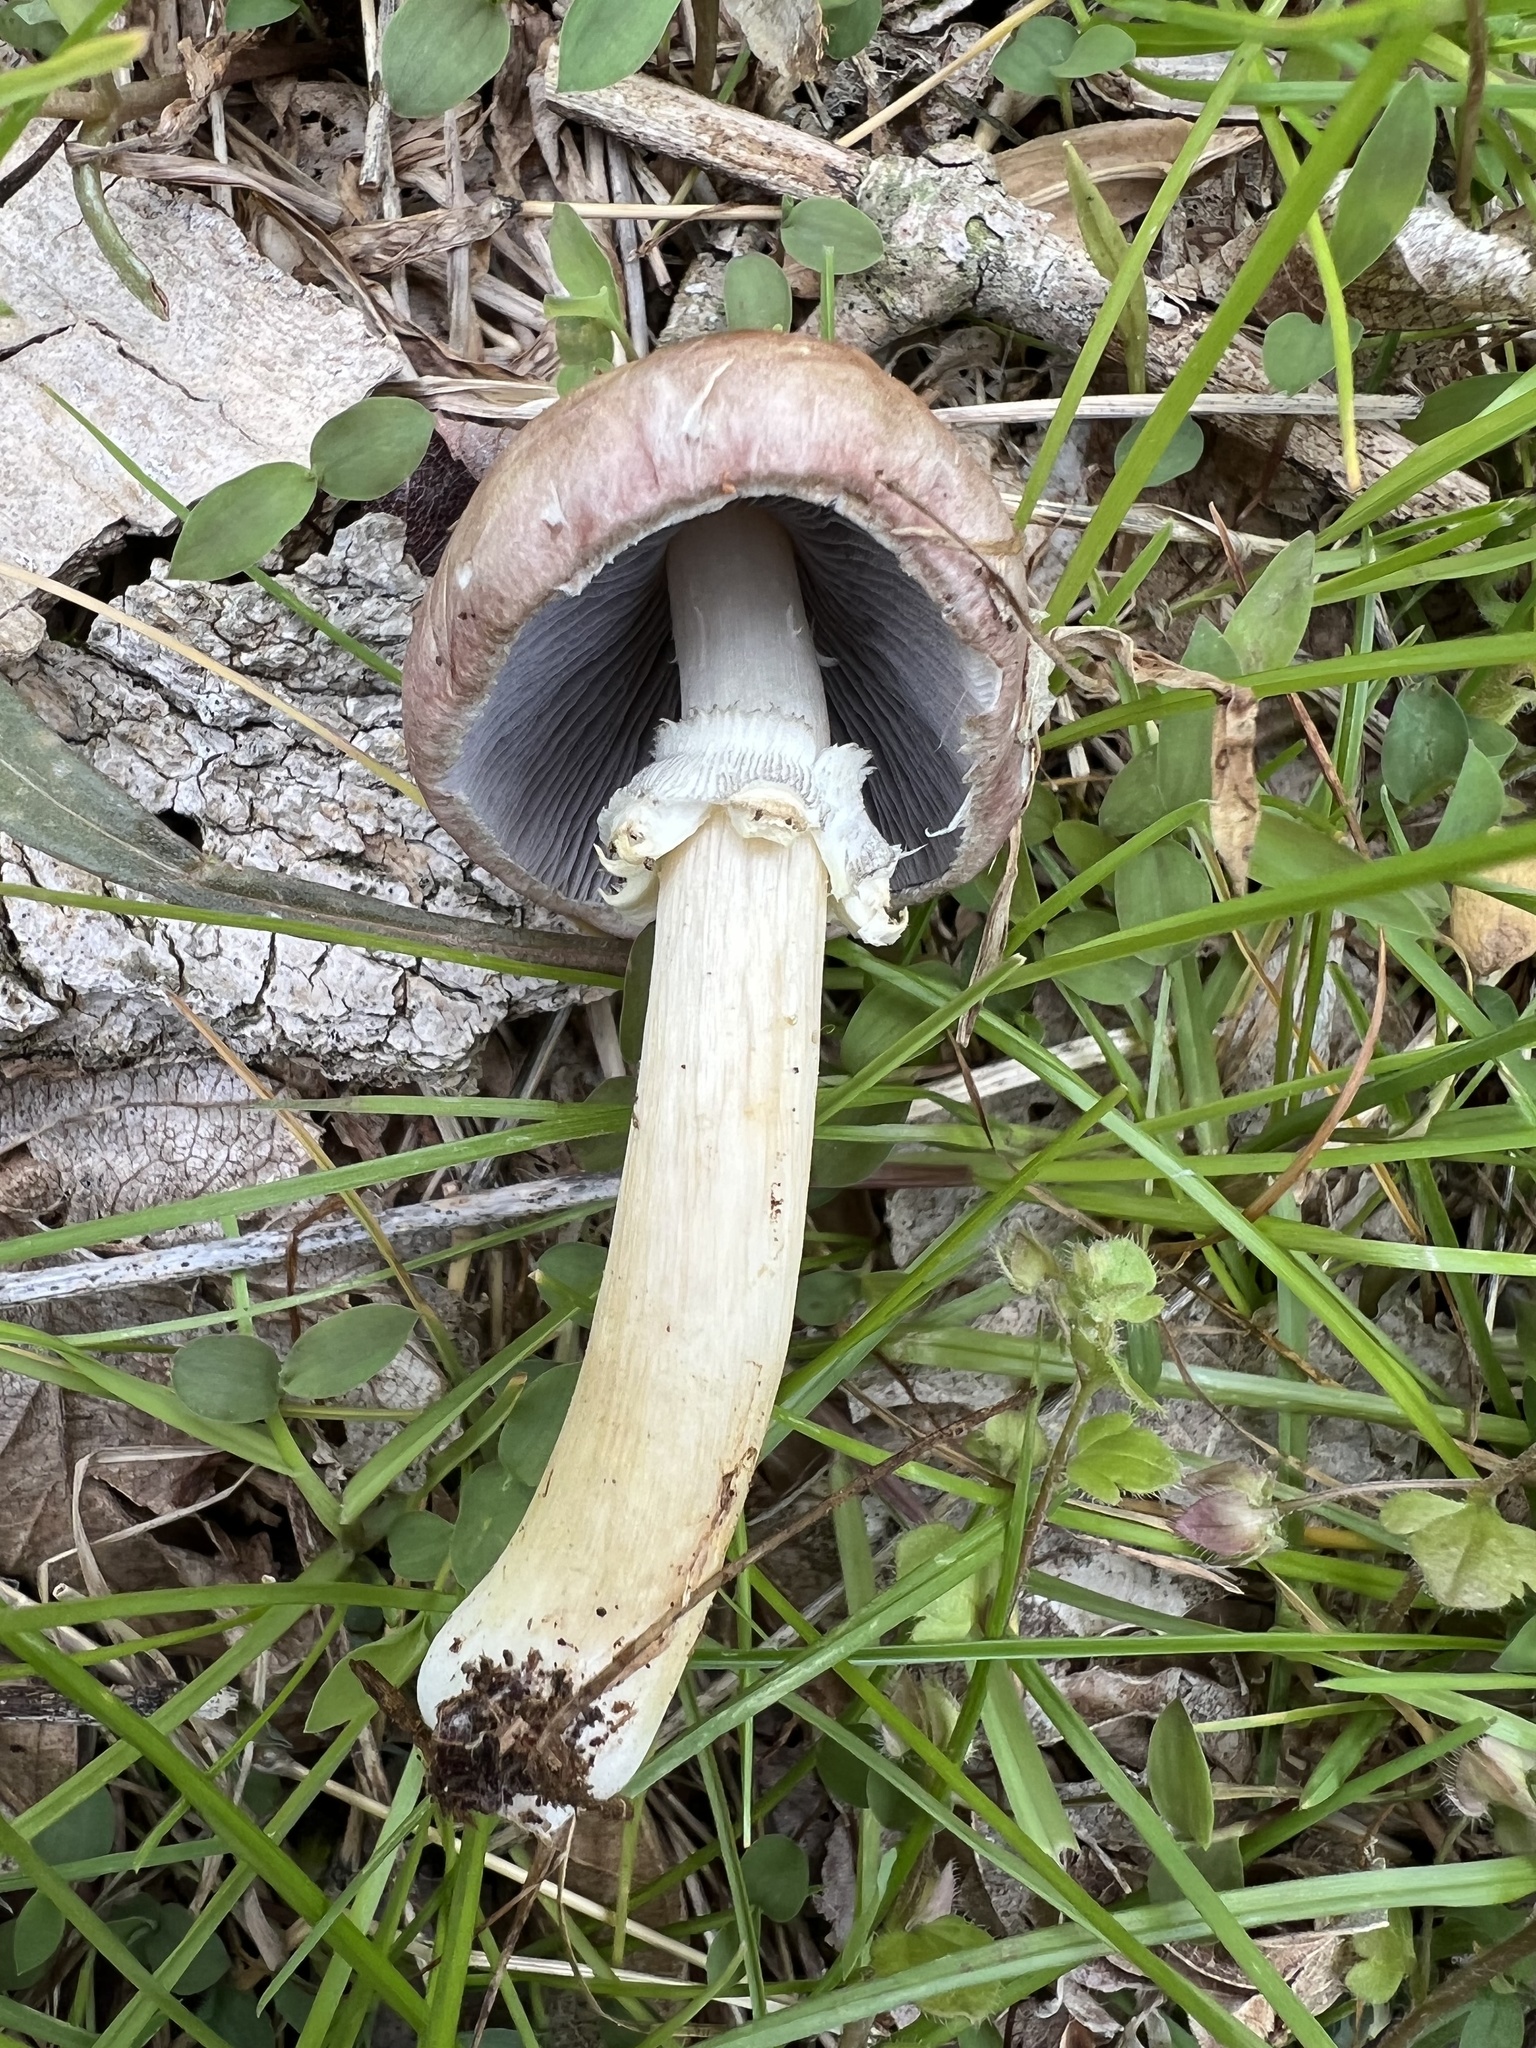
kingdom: Fungi
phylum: Basidiomycota
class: Agaricomycetes
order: Agaricales
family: Strophariaceae
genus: Stropharia
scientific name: Stropharia rugosoannulata
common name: Wine roundhead
